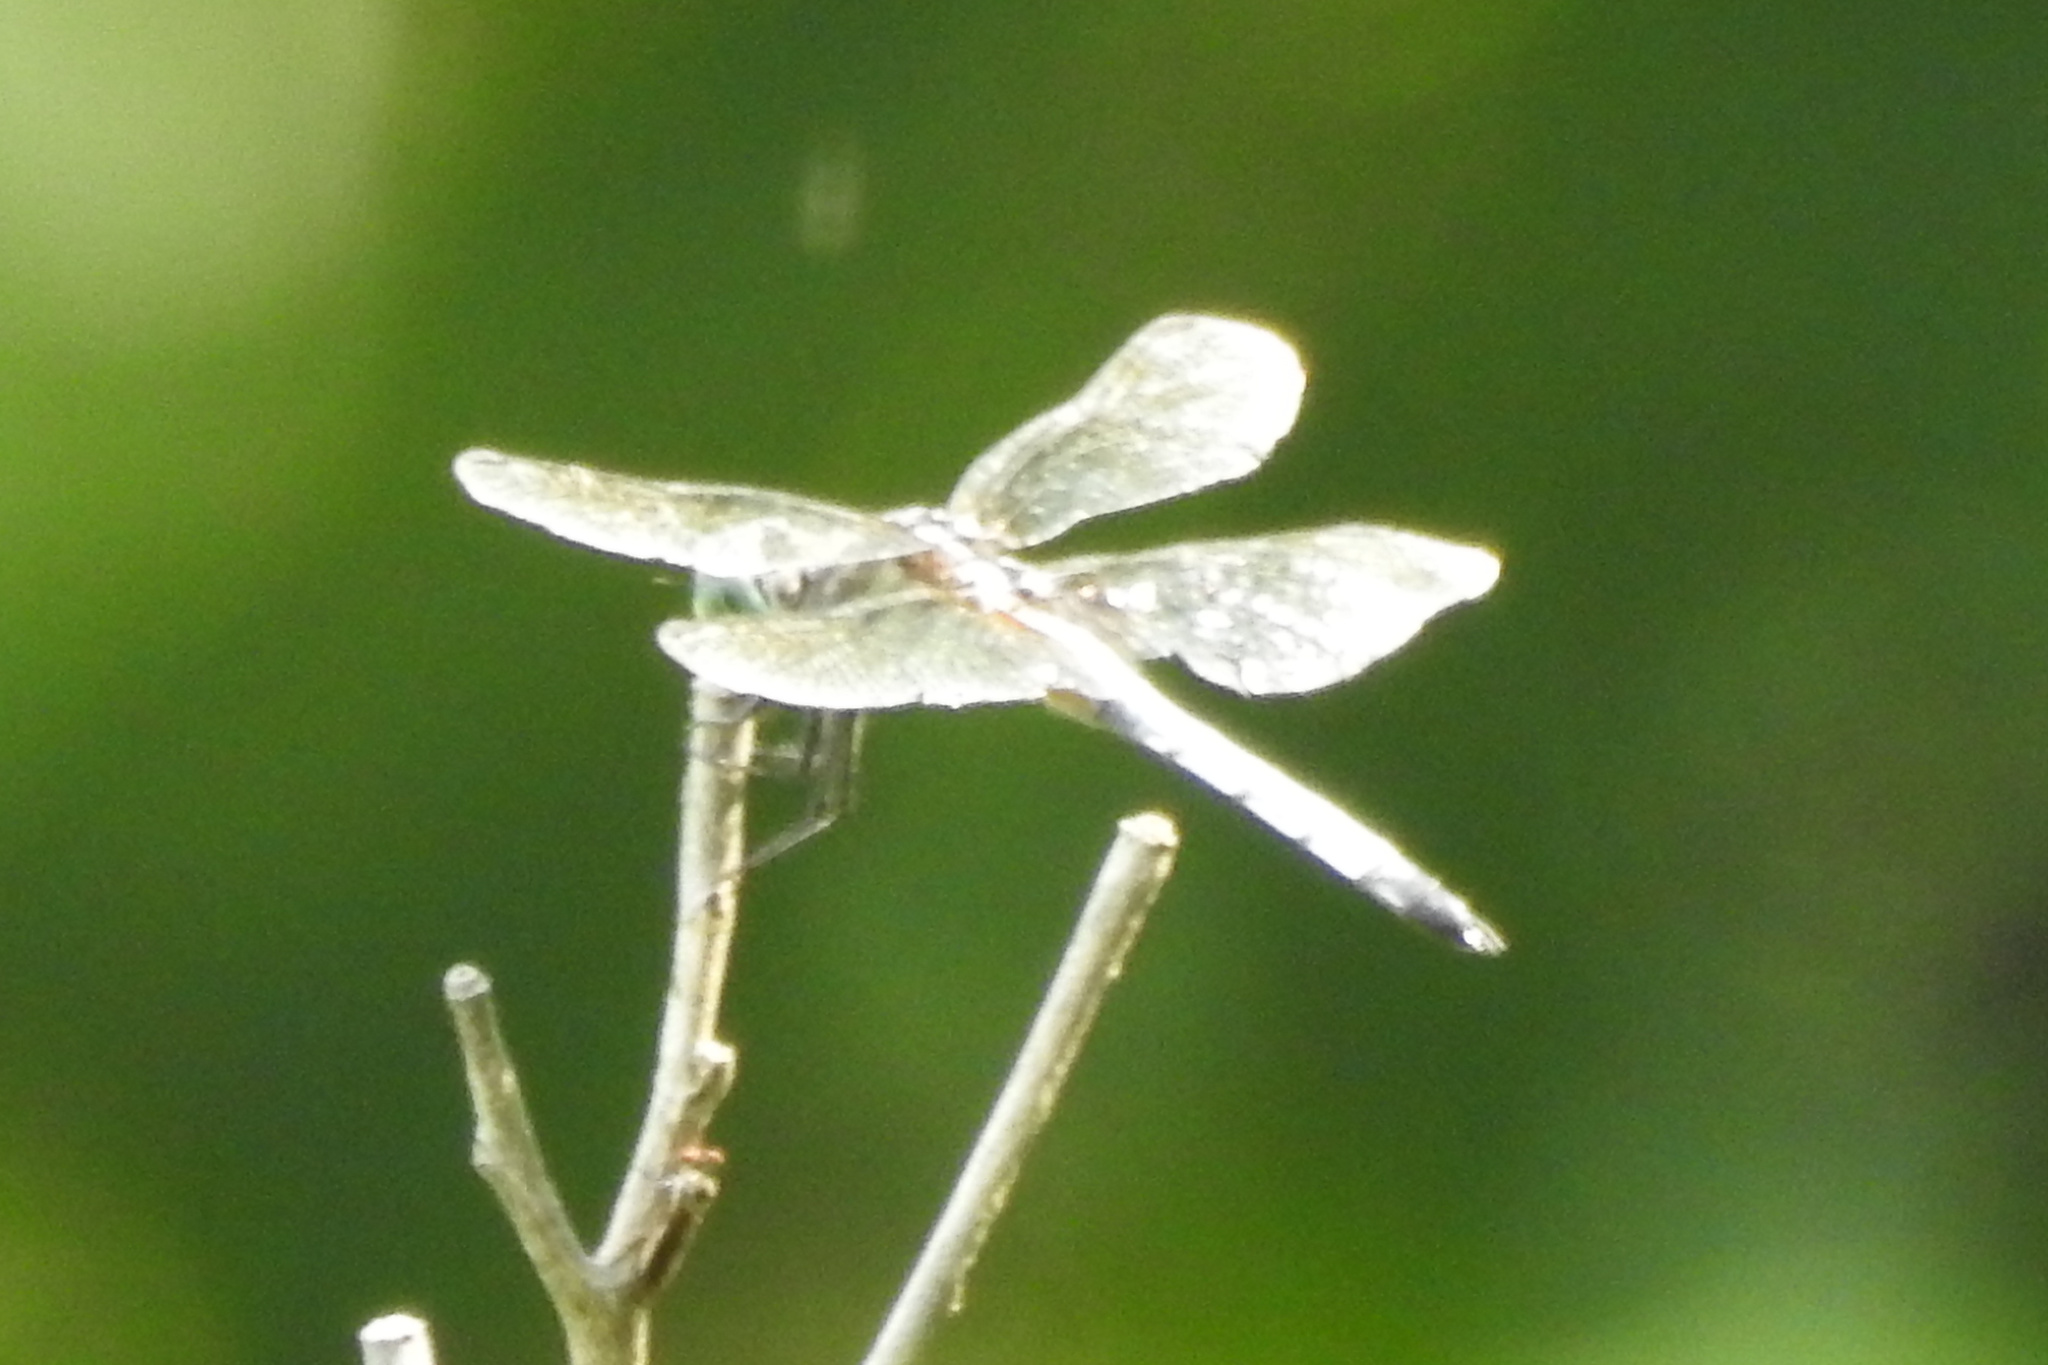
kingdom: Animalia
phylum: Arthropoda
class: Insecta
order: Odonata
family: Libellulidae
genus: Pachydiplax
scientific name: Pachydiplax longipennis
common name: Blue dasher
